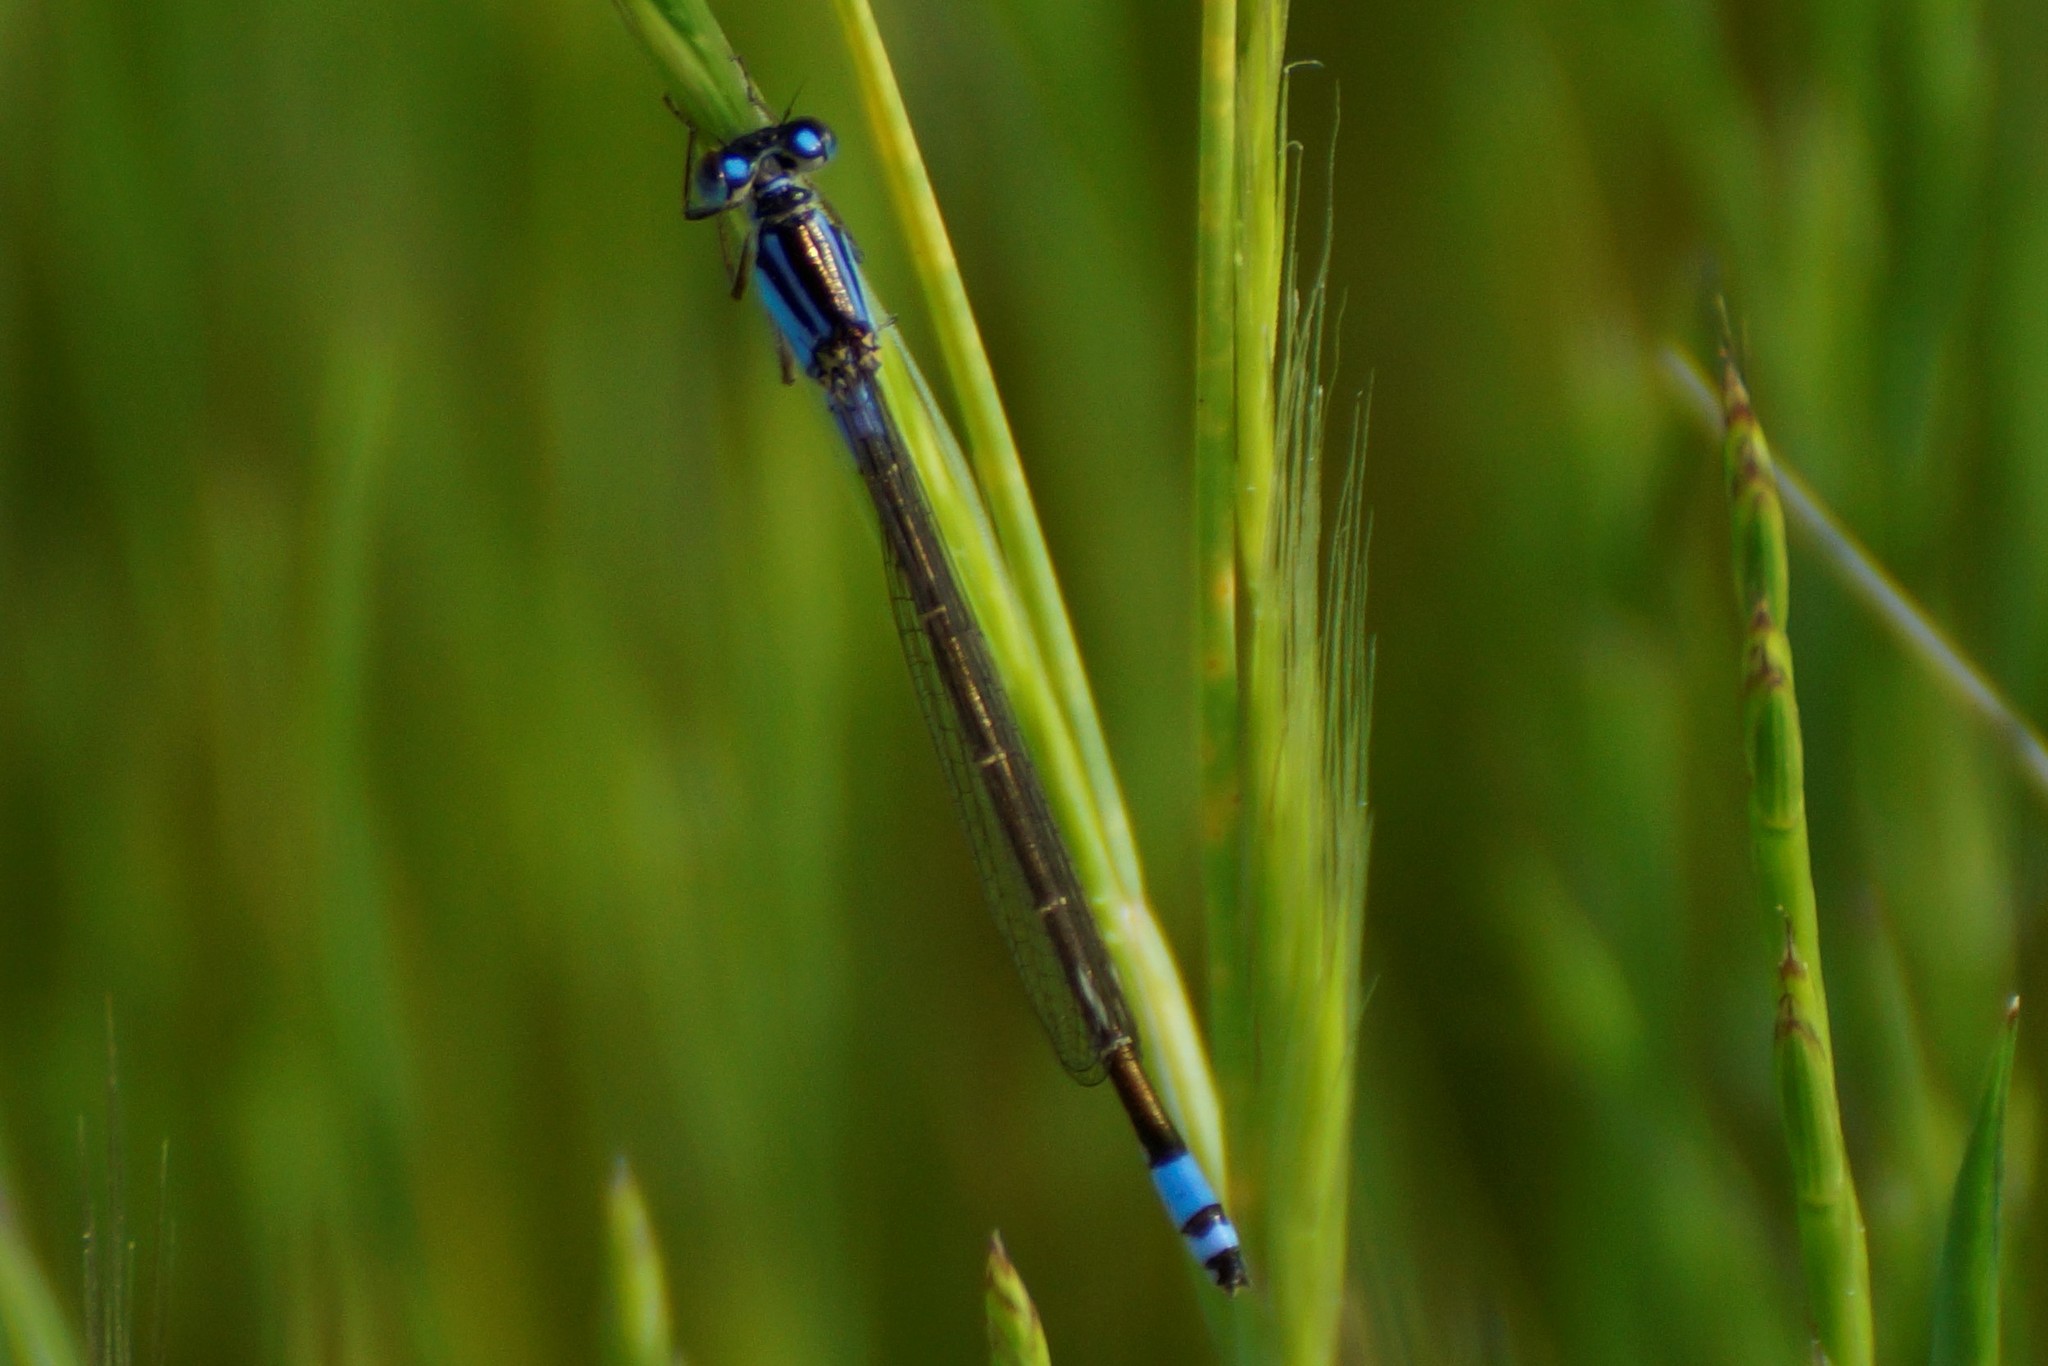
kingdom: Animalia
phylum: Arthropoda
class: Insecta
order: Odonata
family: Coenagrionidae
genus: Ischnura
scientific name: Ischnura heterosticta
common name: Common bluetail
